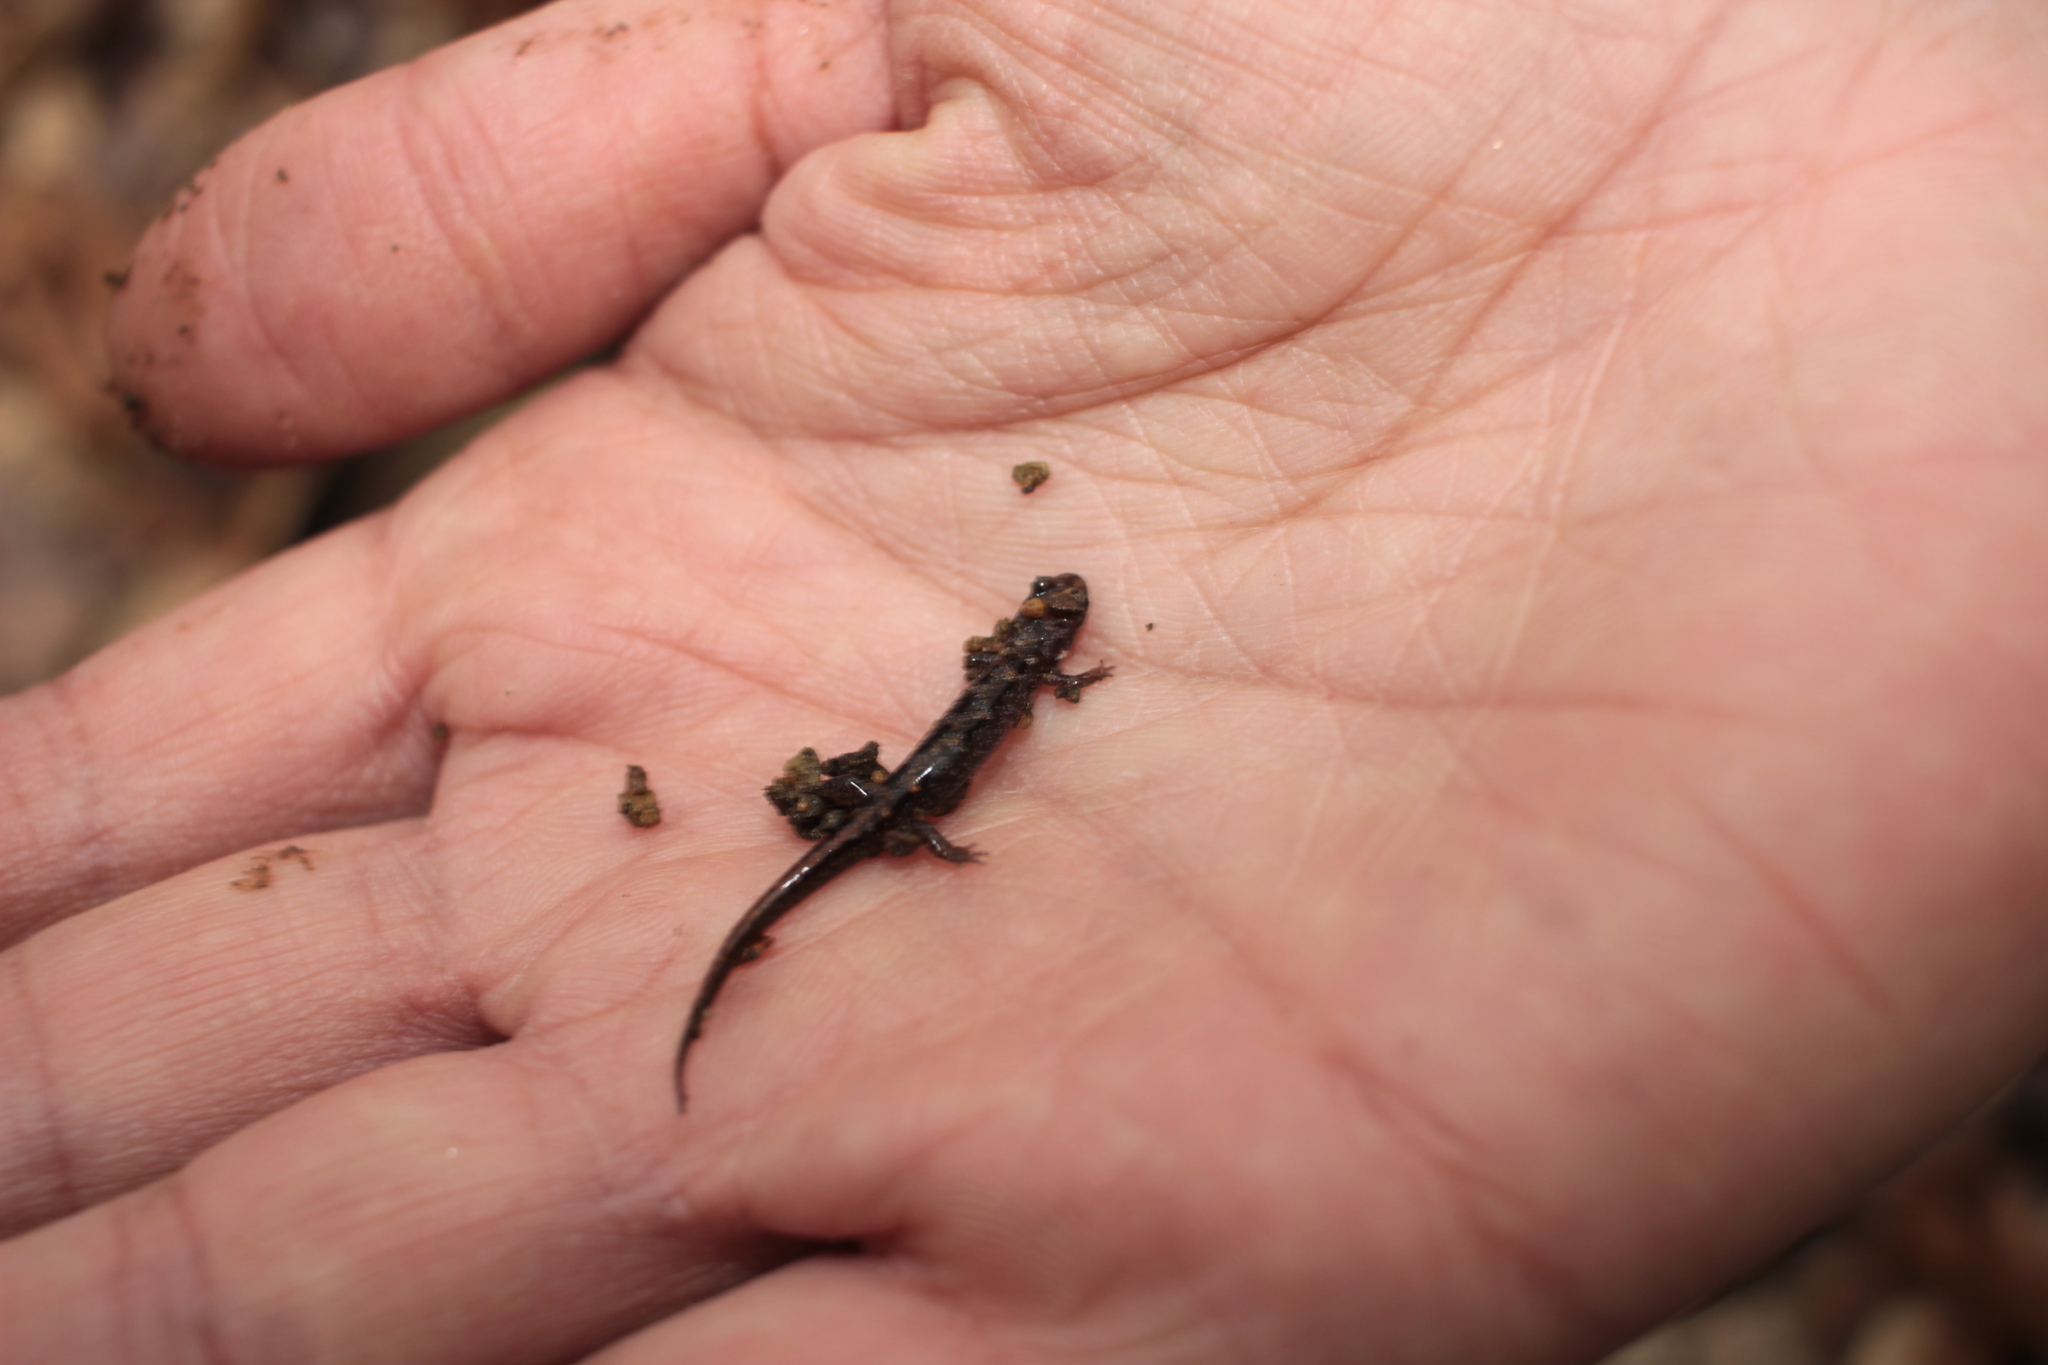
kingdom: Animalia
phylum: Chordata
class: Amphibia
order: Caudata
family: Plethodontidae
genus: Desmognathus
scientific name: Desmognathus orestes
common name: Blue ridge dusky salamander
